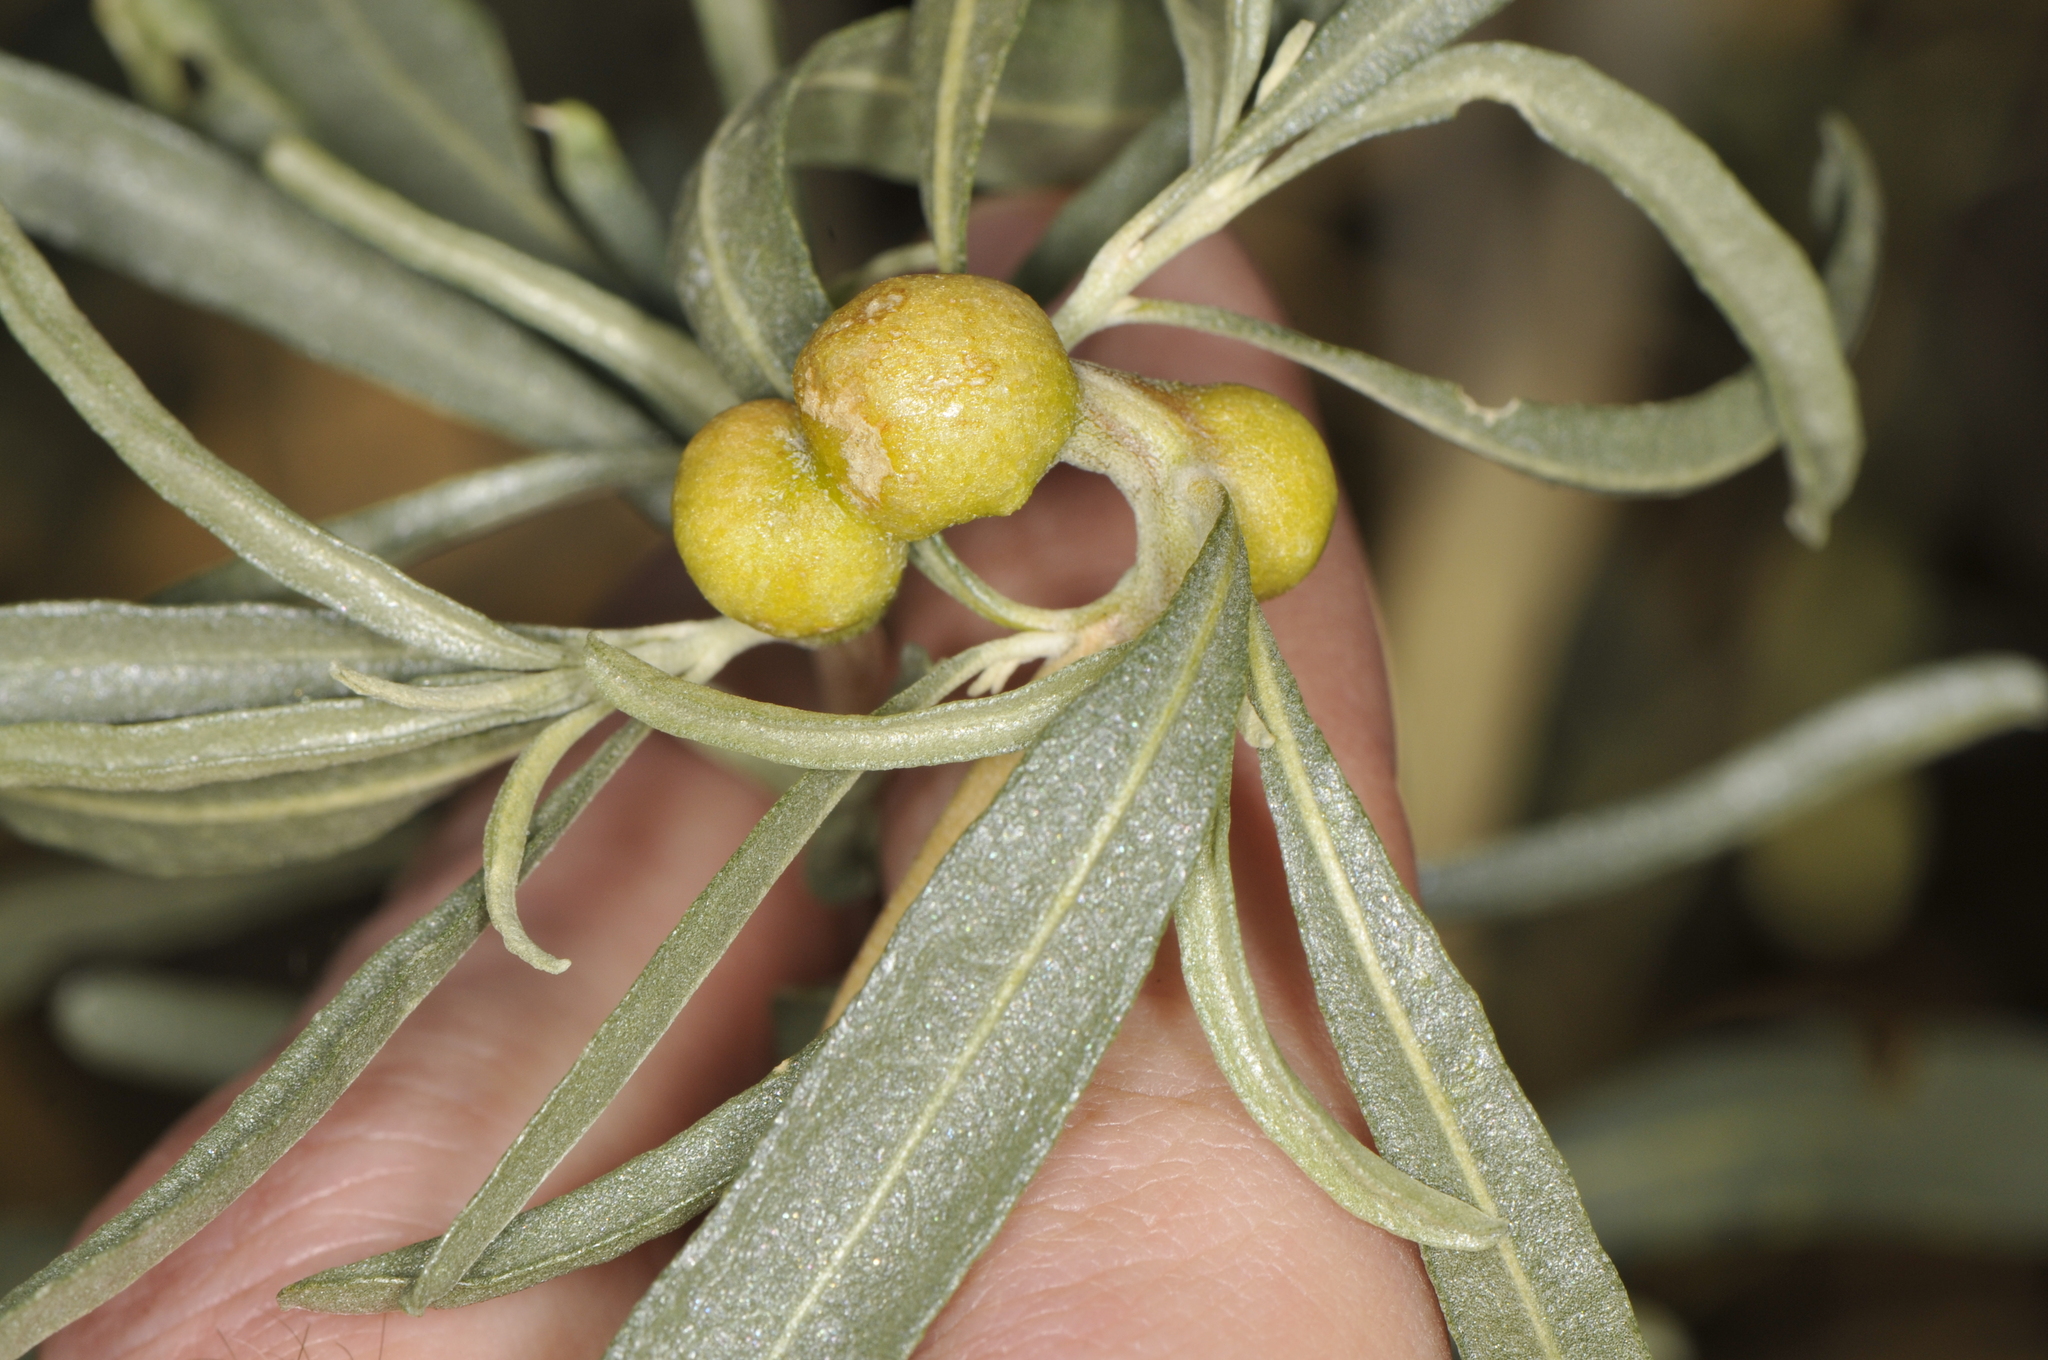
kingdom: Animalia
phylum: Arthropoda
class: Insecta
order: Diptera
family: Cecidomyiidae
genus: Asphondylia
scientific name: Asphondylia atriplicis
